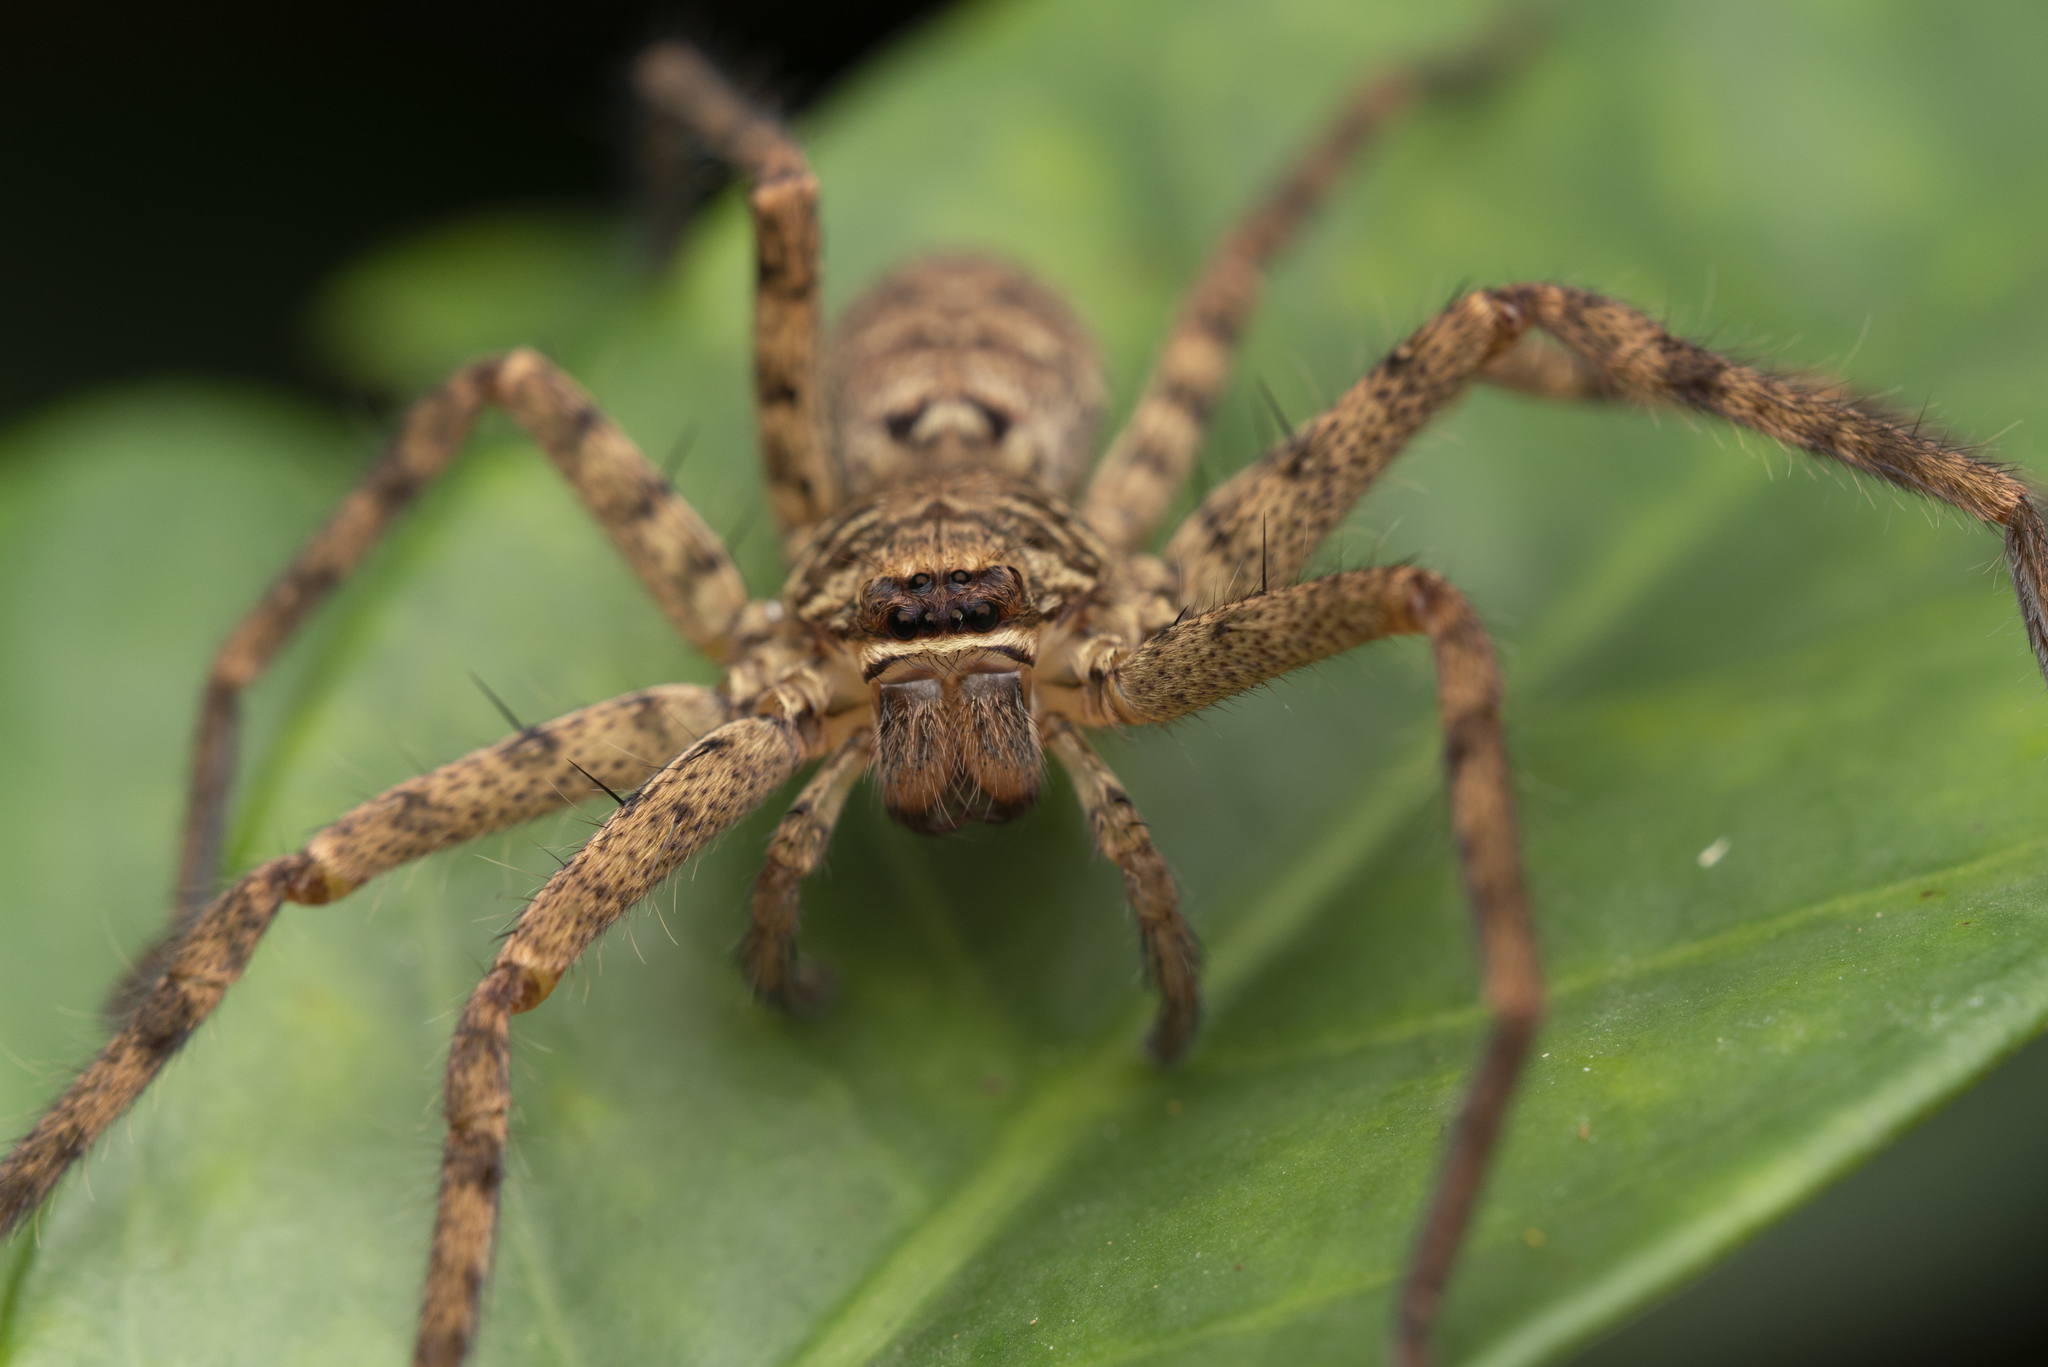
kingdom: Animalia
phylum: Arthropoda
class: Arachnida
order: Araneae
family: Sparassidae
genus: Heteropoda
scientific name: Heteropoda venatoria
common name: Huntsman spider
